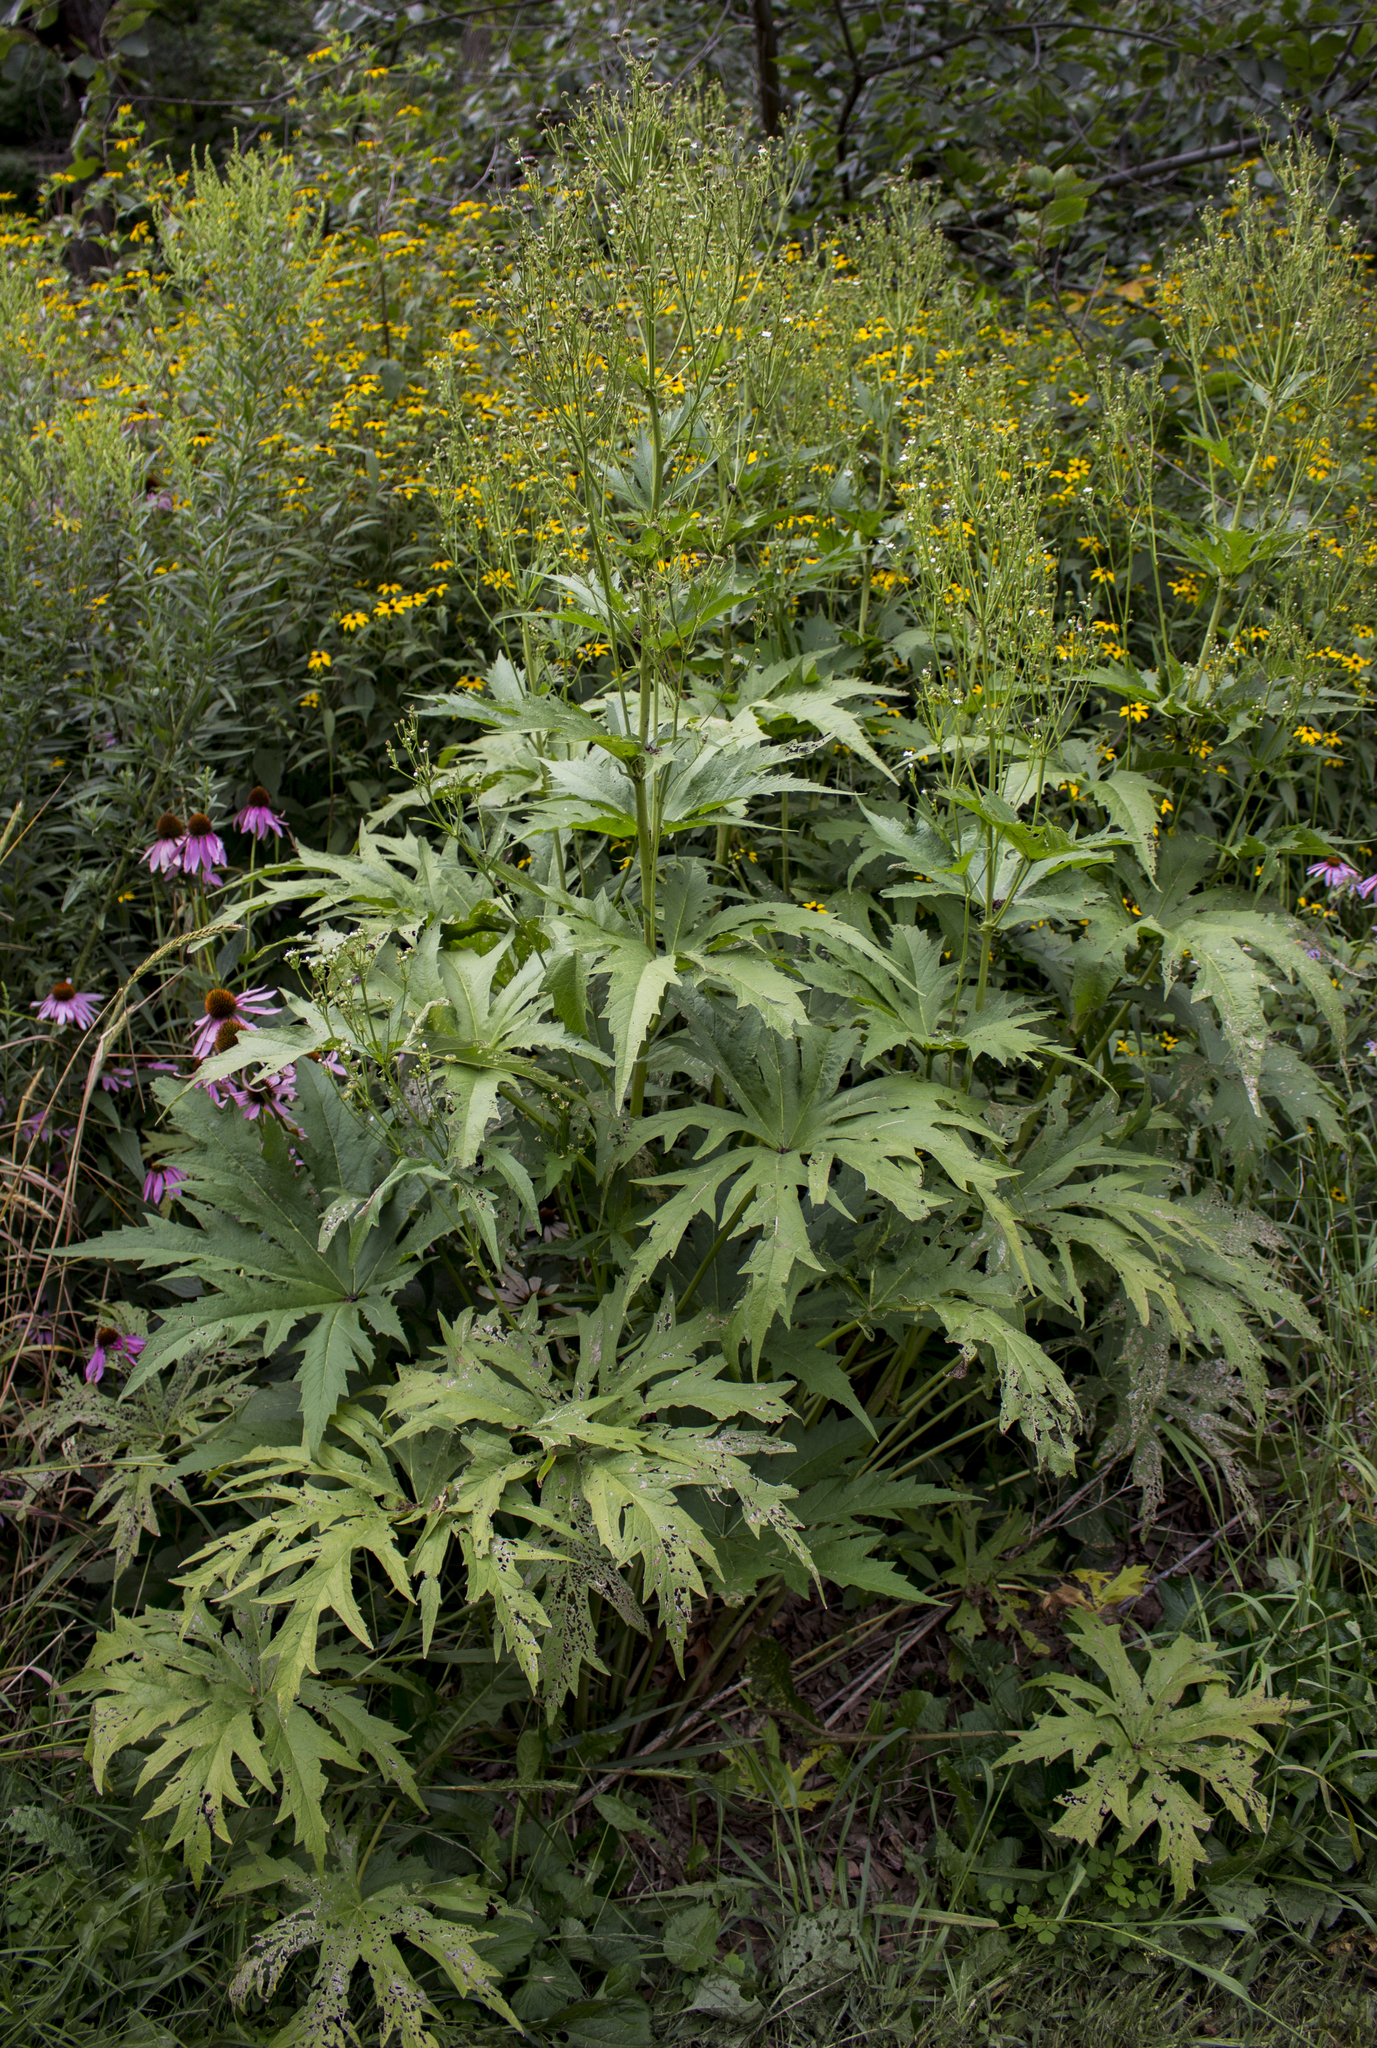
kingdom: Plantae
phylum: Tracheophyta
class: Magnoliopsida
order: Malvales
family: Malvaceae
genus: Napaea
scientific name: Napaea dioica
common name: Glade-mallow
